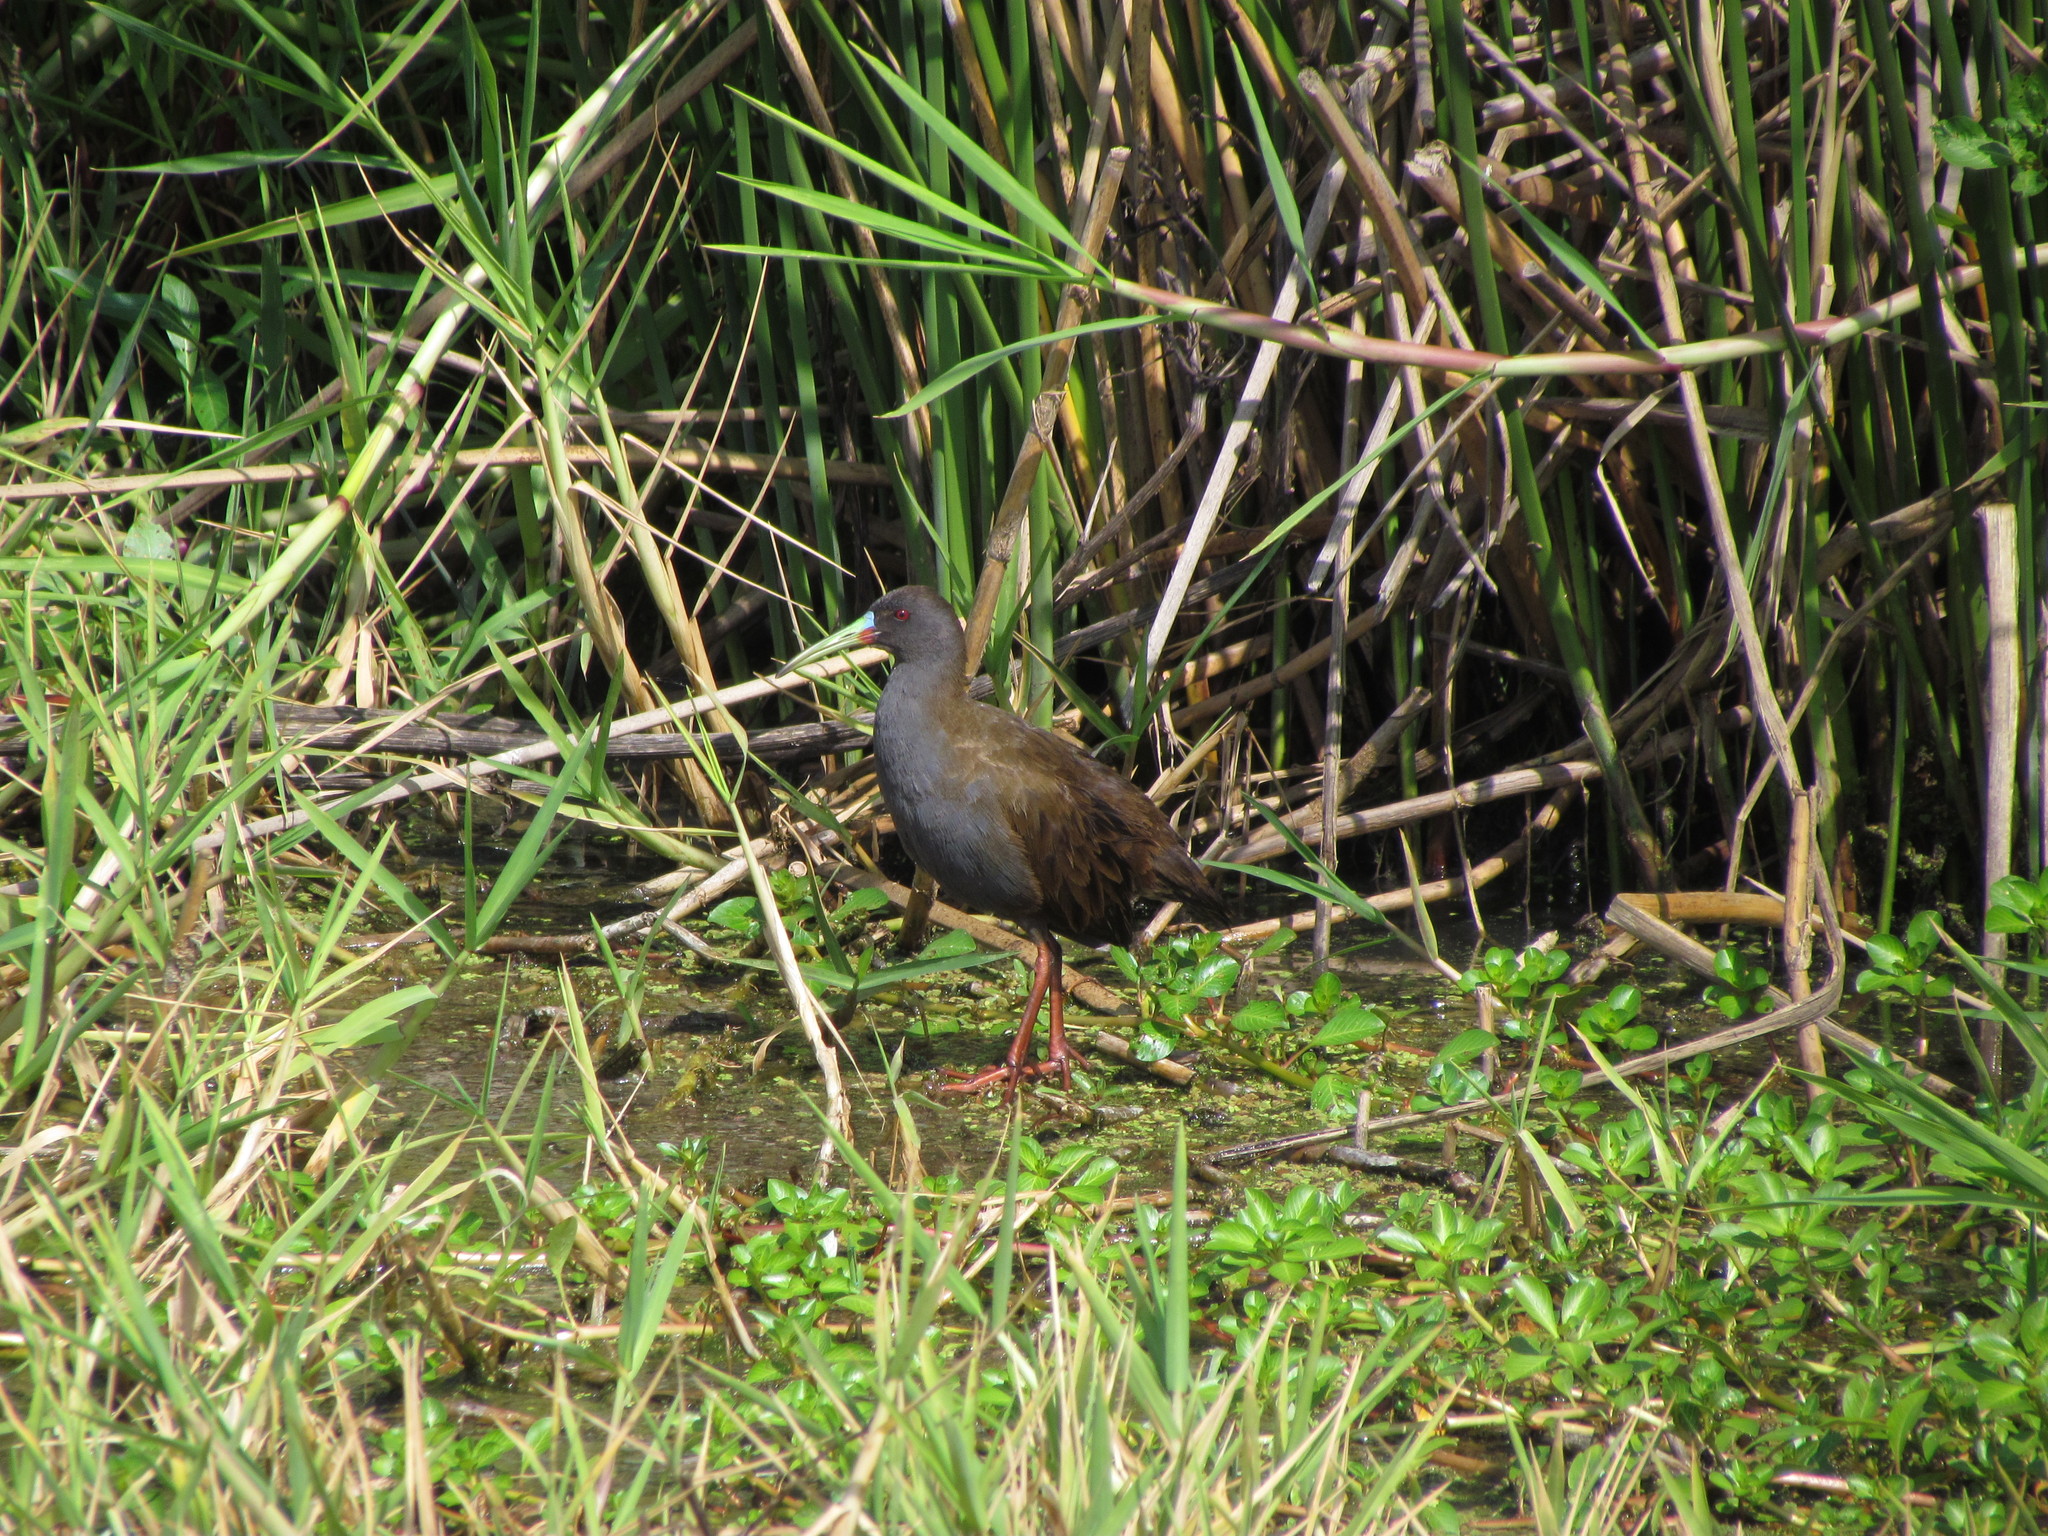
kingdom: Animalia
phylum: Chordata
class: Aves
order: Gruiformes
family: Rallidae
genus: Pardirallus
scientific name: Pardirallus sanguinolentus
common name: Plumbeous rail
